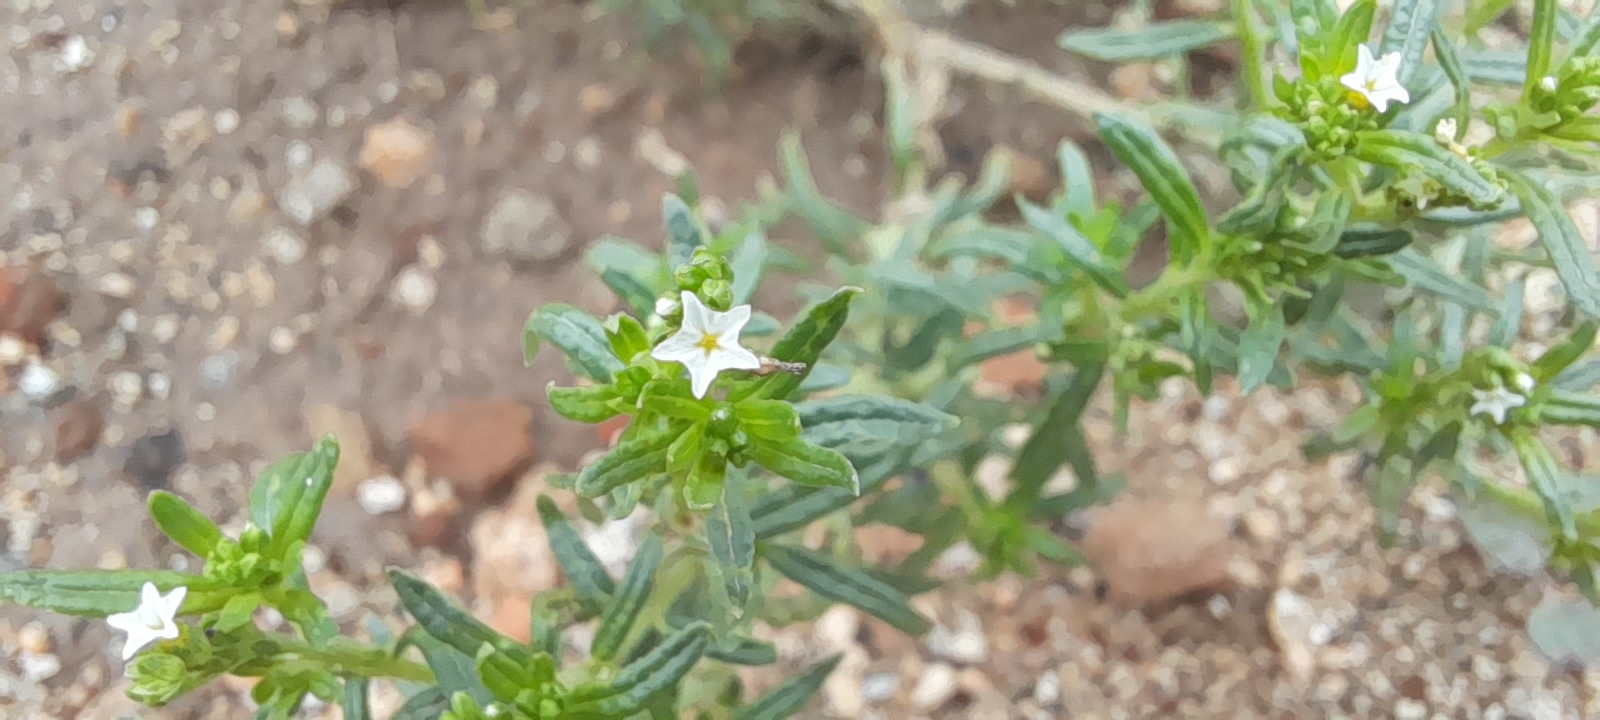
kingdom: Plantae
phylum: Tracheophyta
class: Magnoliopsida
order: Boraginales
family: Heliotropiaceae
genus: Euploca
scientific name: Euploca strigosa
